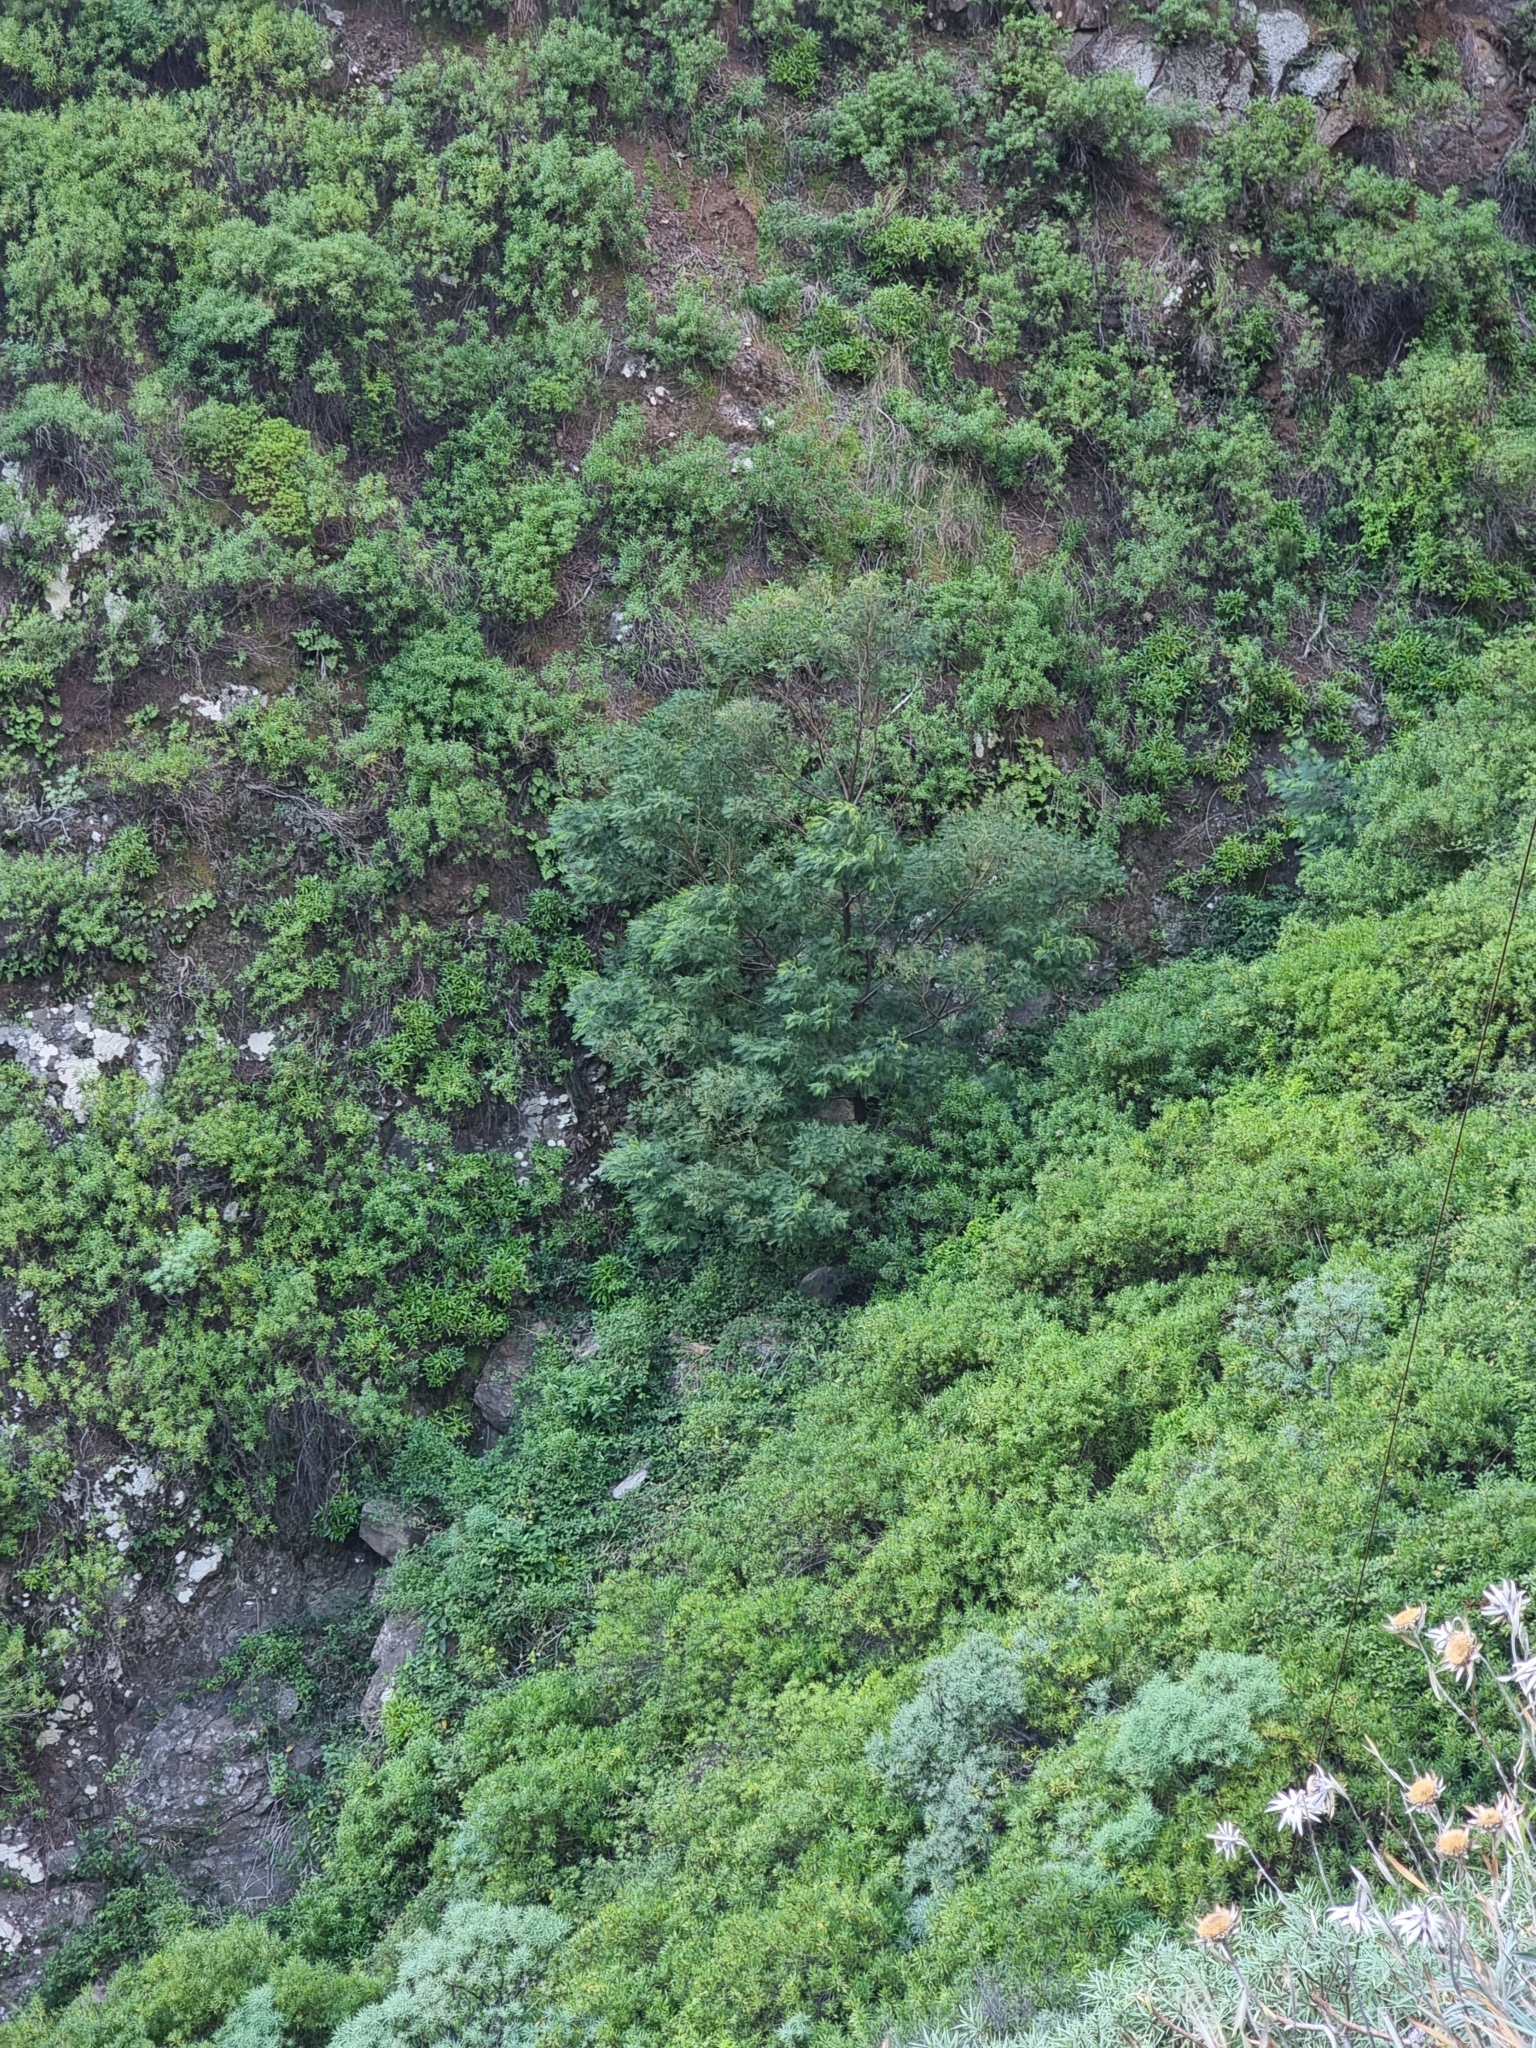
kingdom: Plantae
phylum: Tracheophyta
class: Magnoliopsida
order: Fabales
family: Fabaceae
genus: Acacia
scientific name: Acacia mearnsii
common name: Black wattle
